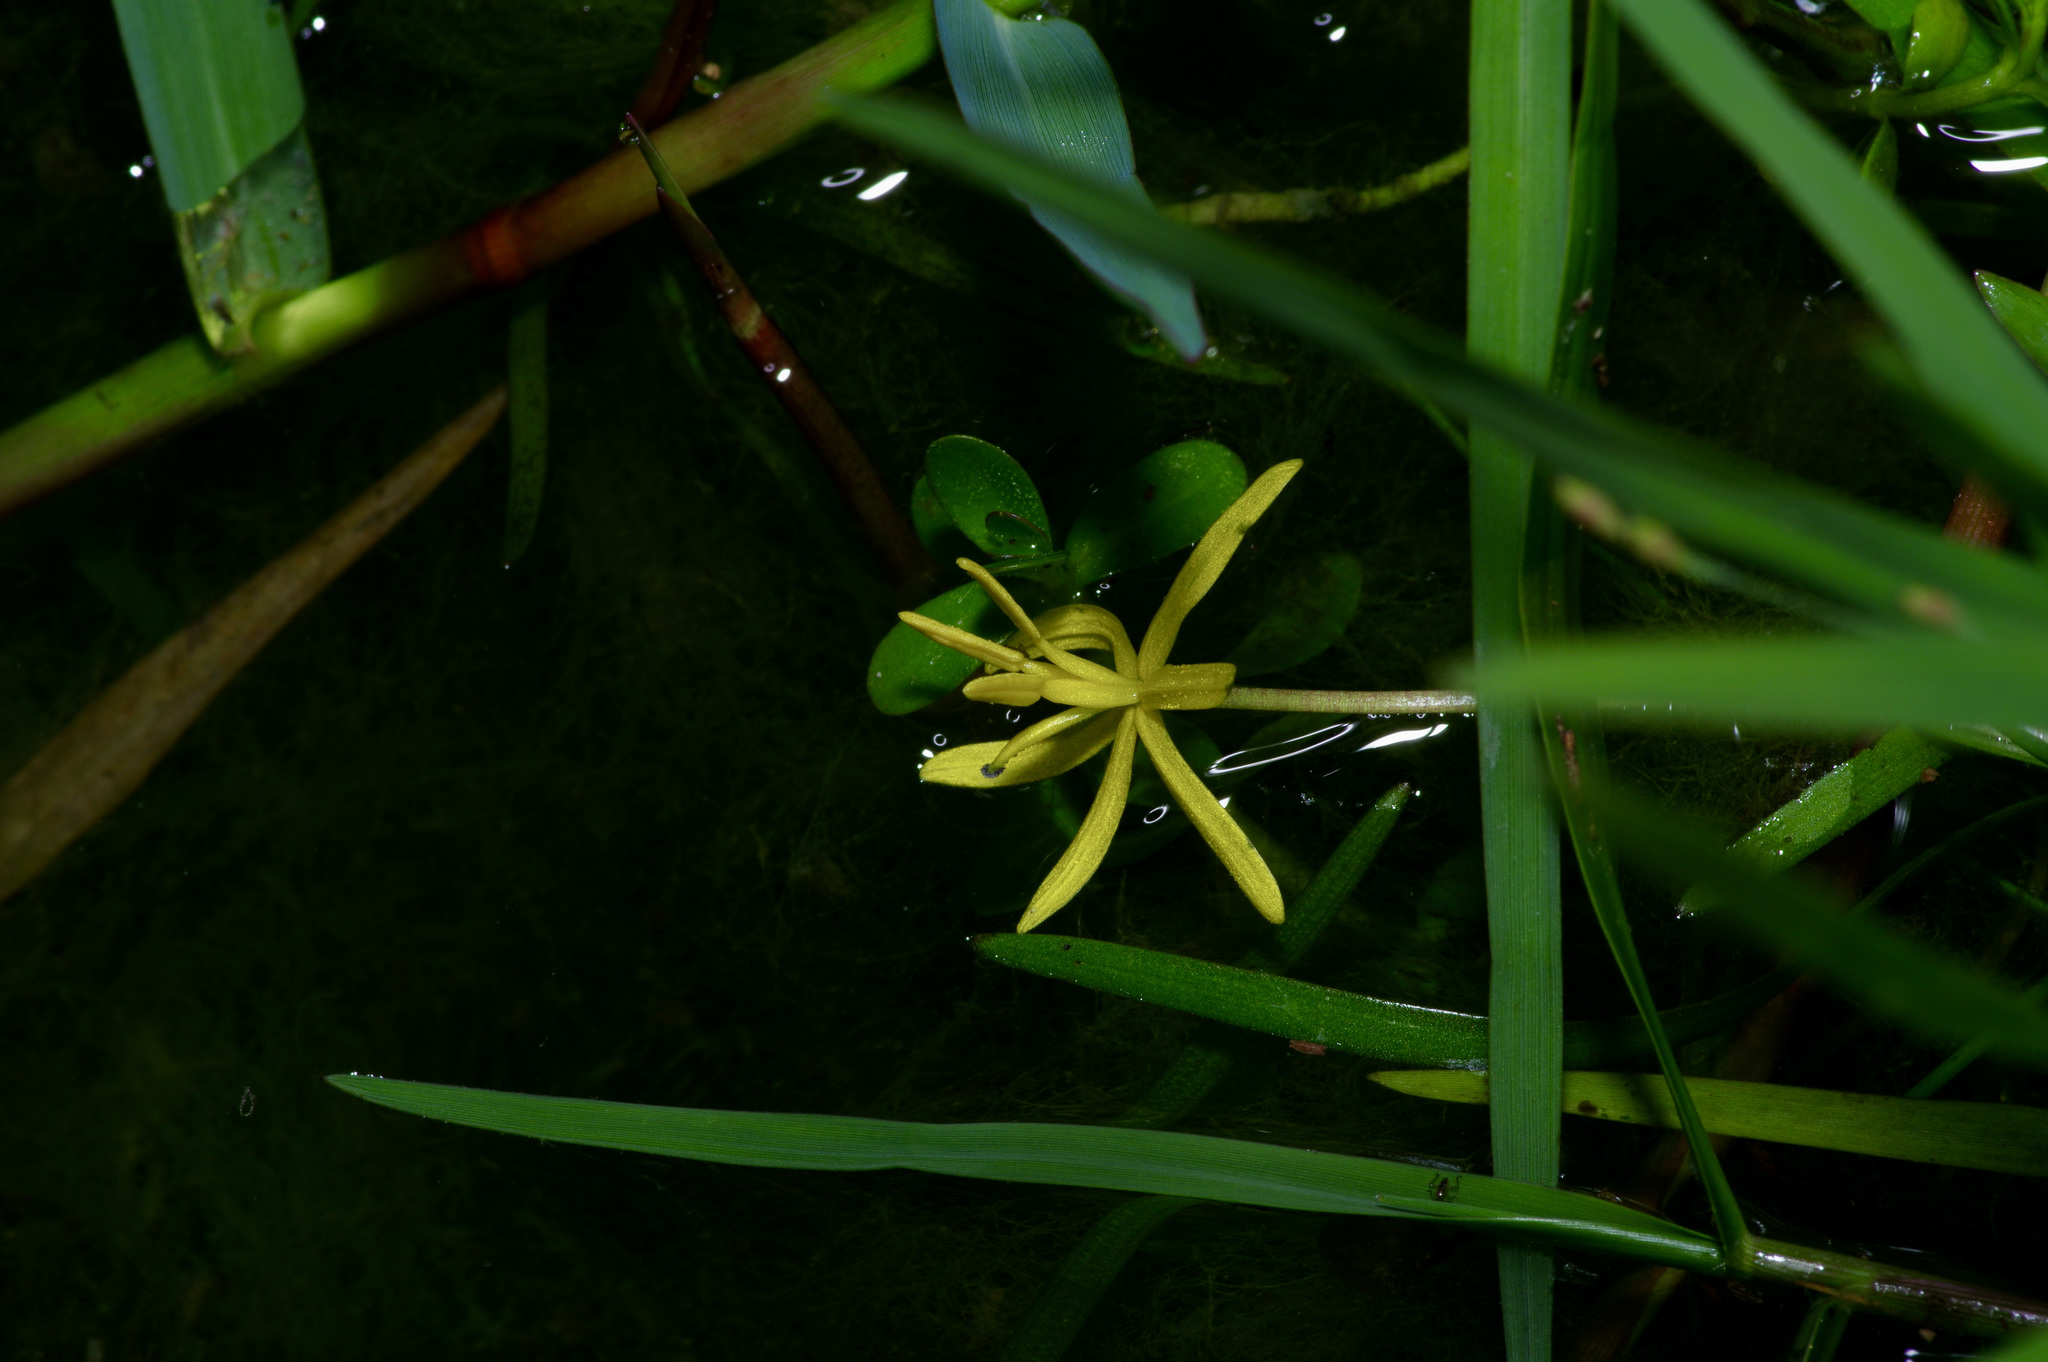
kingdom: Plantae
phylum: Tracheophyta
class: Liliopsida
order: Commelinales
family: Pontederiaceae
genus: Heteranthera
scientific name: Heteranthera dubia
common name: Grass-leaved mud plantain
